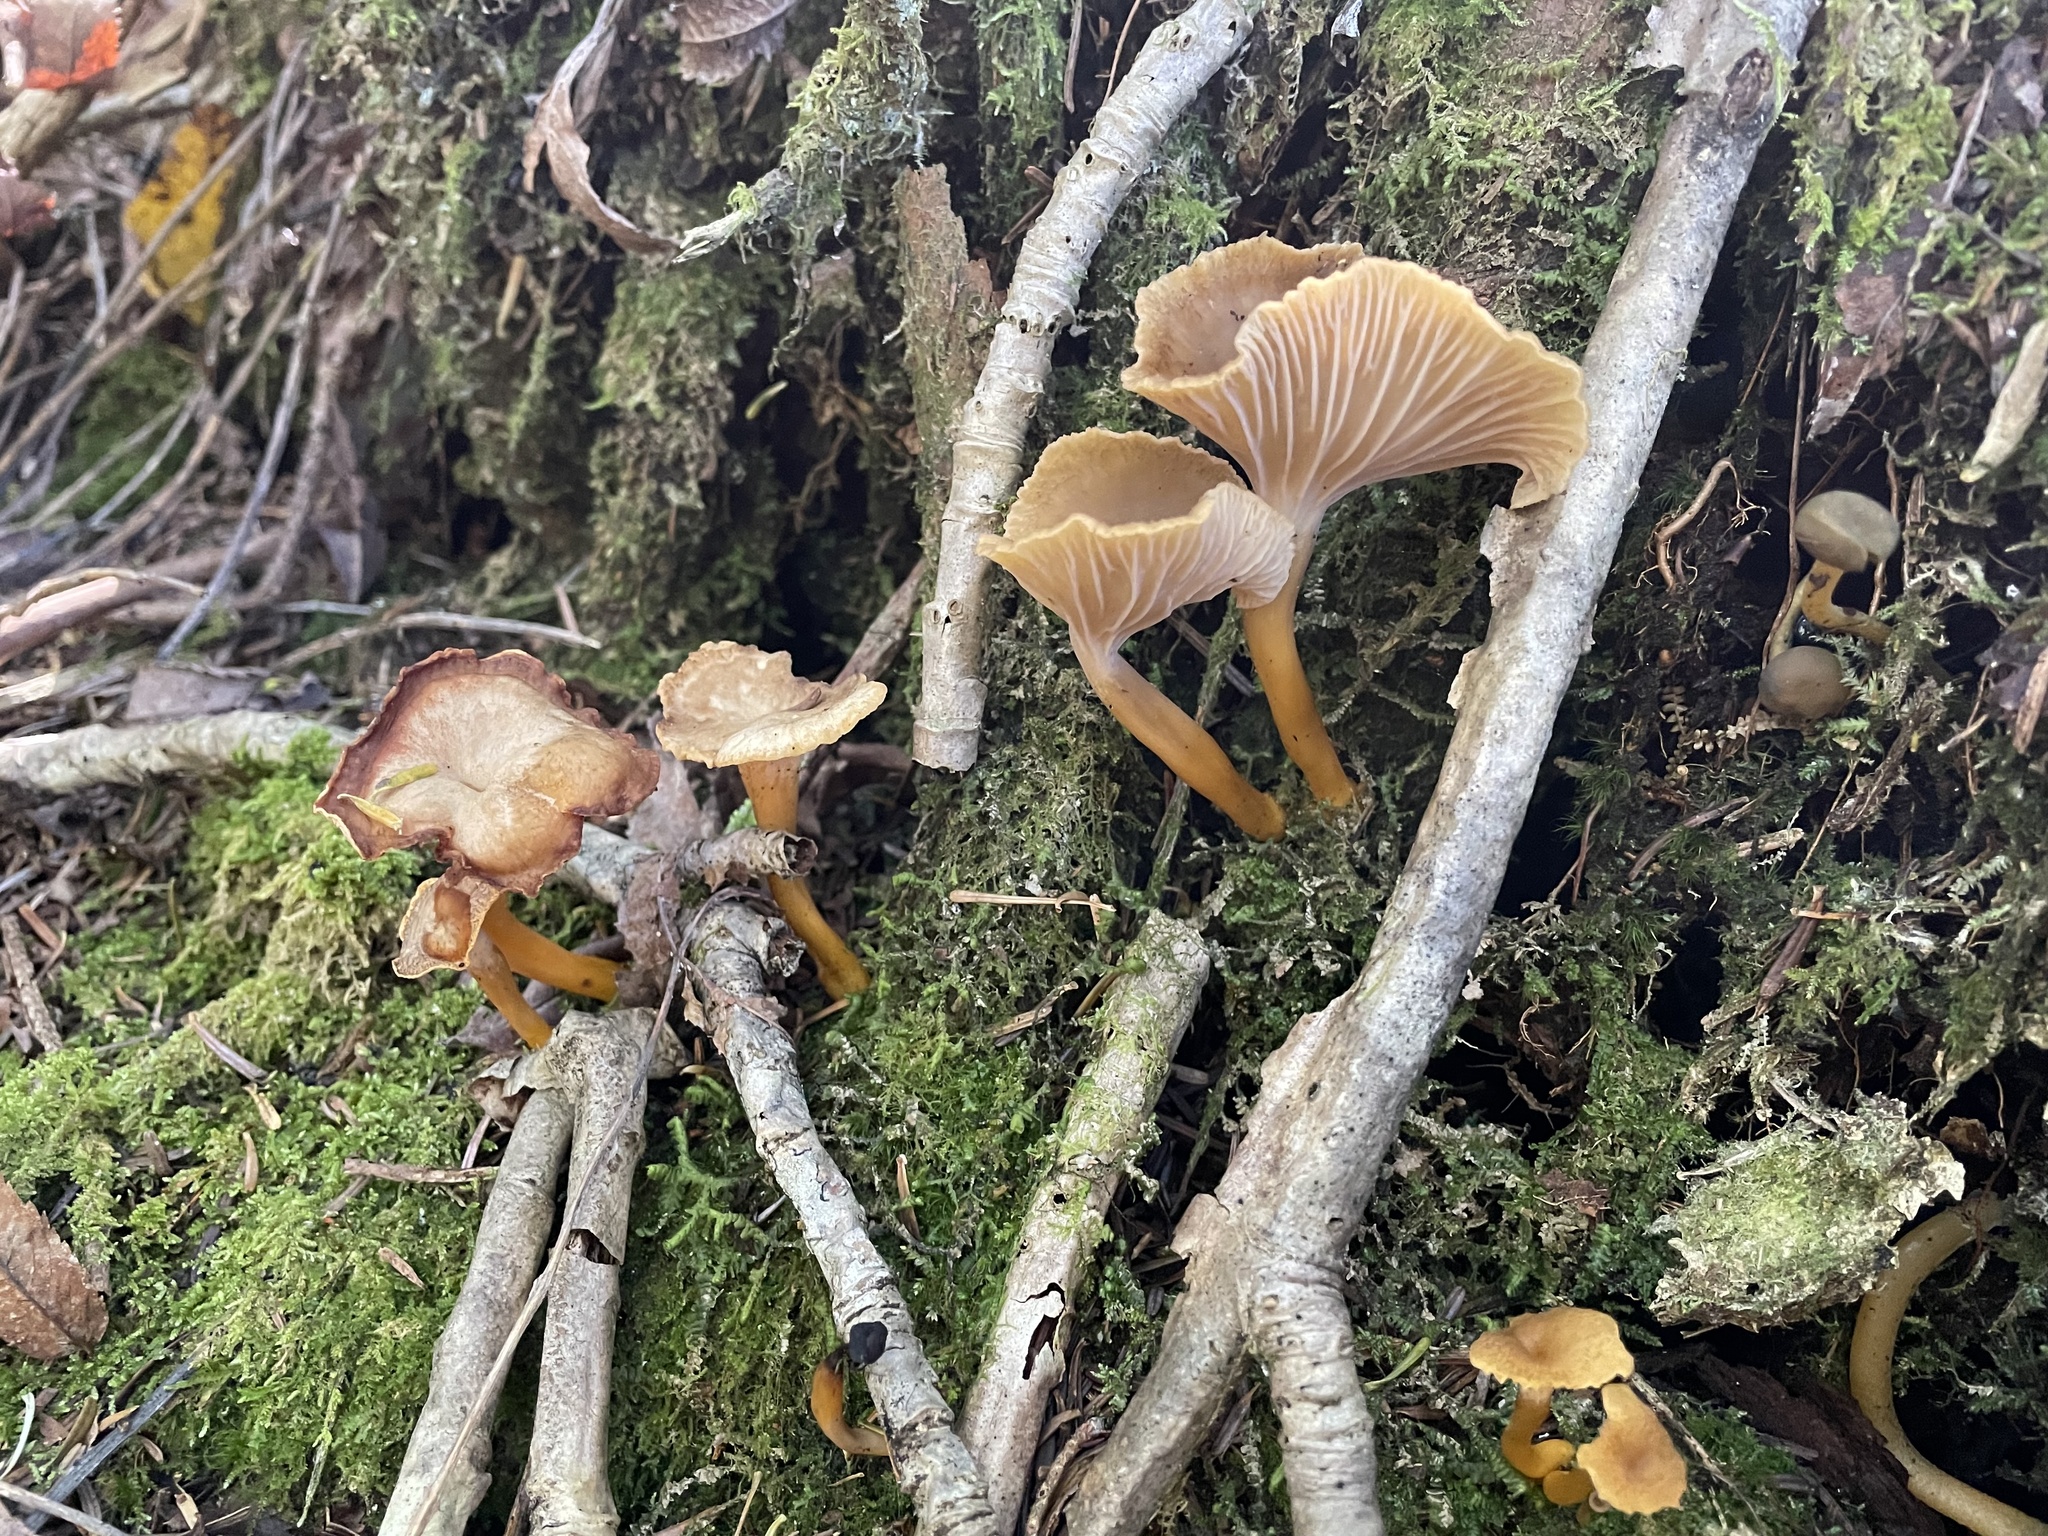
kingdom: Fungi
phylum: Basidiomycota
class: Agaricomycetes
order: Cantharellales
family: Hydnaceae
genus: Craterellus
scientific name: Craterellus tubaeformis
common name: Yellowfoot
